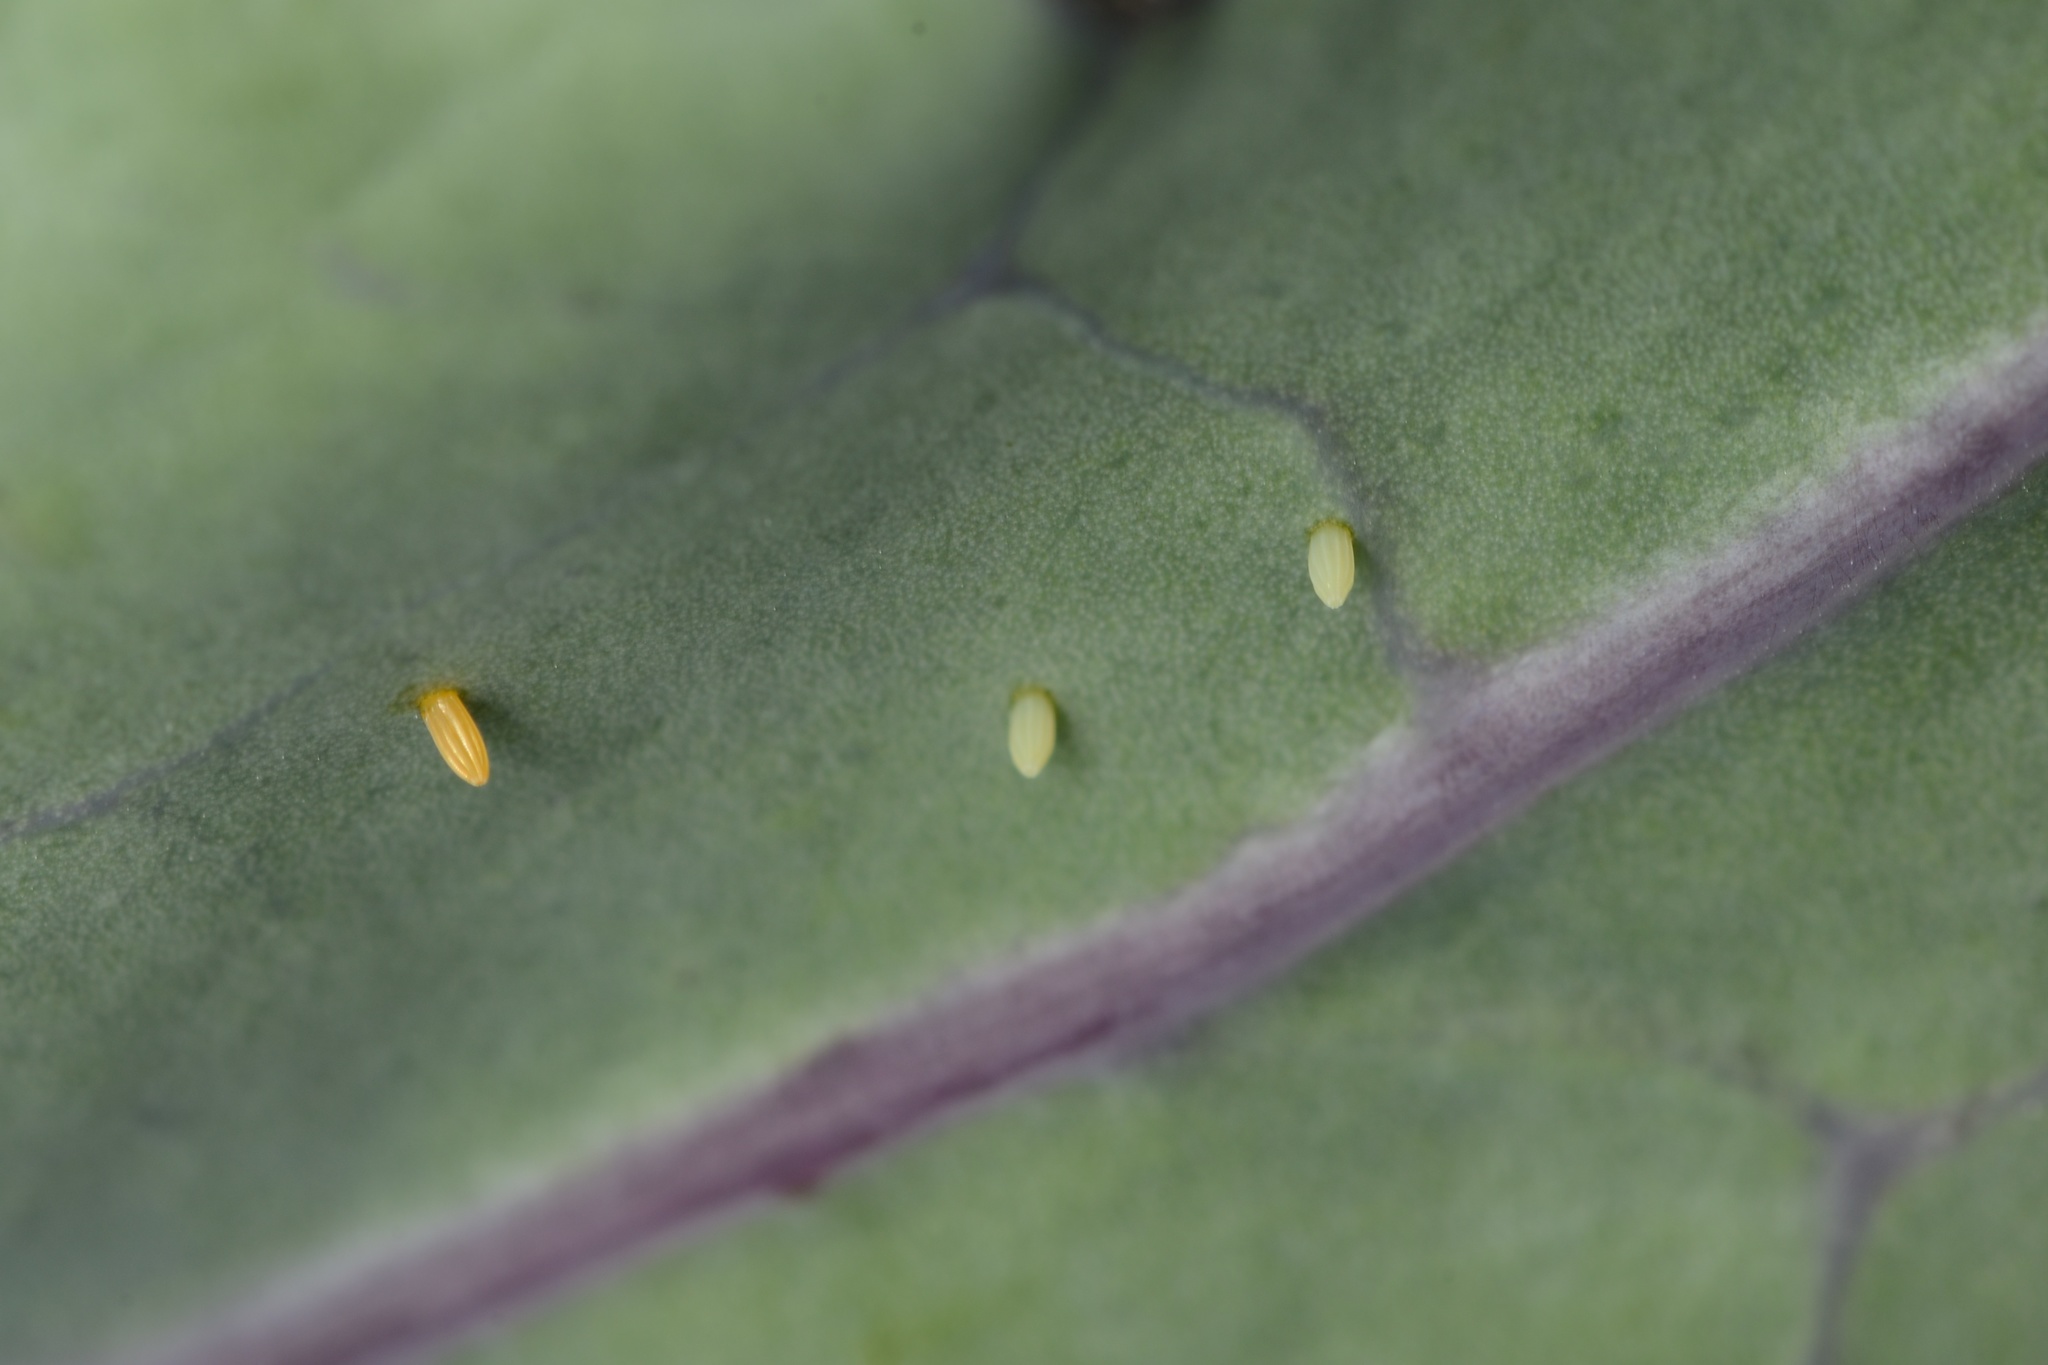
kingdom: Animalia
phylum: Arthropoda
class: Insecta
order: Lepidoptera
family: Pieridae
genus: Pieris
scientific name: Pieris rapae
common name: Small white
